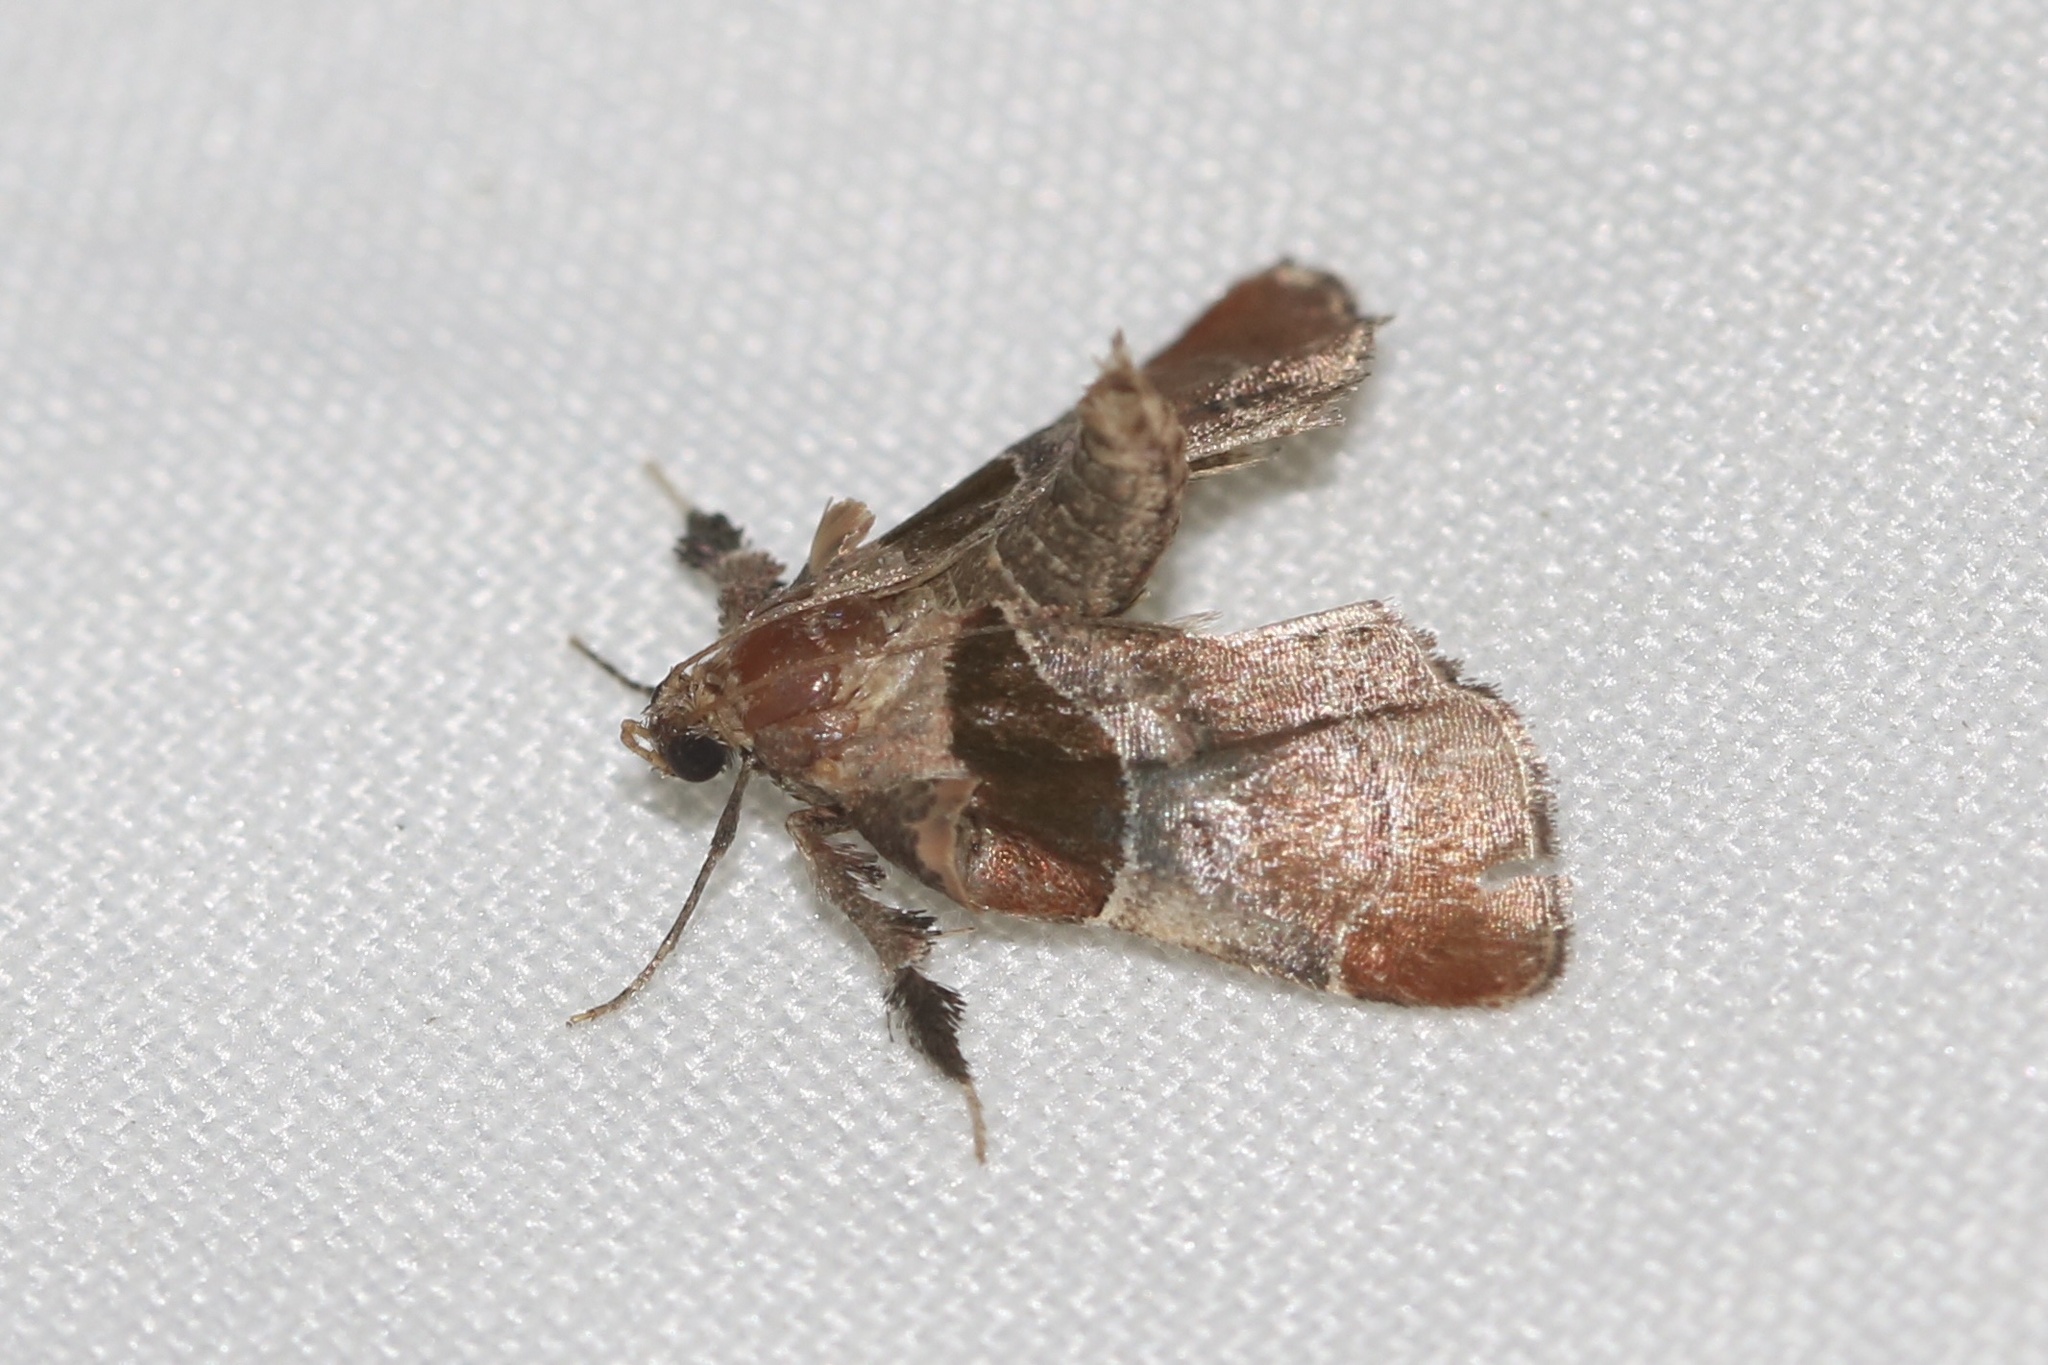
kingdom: Animalia
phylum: Arthropoda
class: Insecta
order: Lepidoptera
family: Pyralidae
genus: Tosale
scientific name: Tosale oviplagalis
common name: Dimorphic tosale moth
